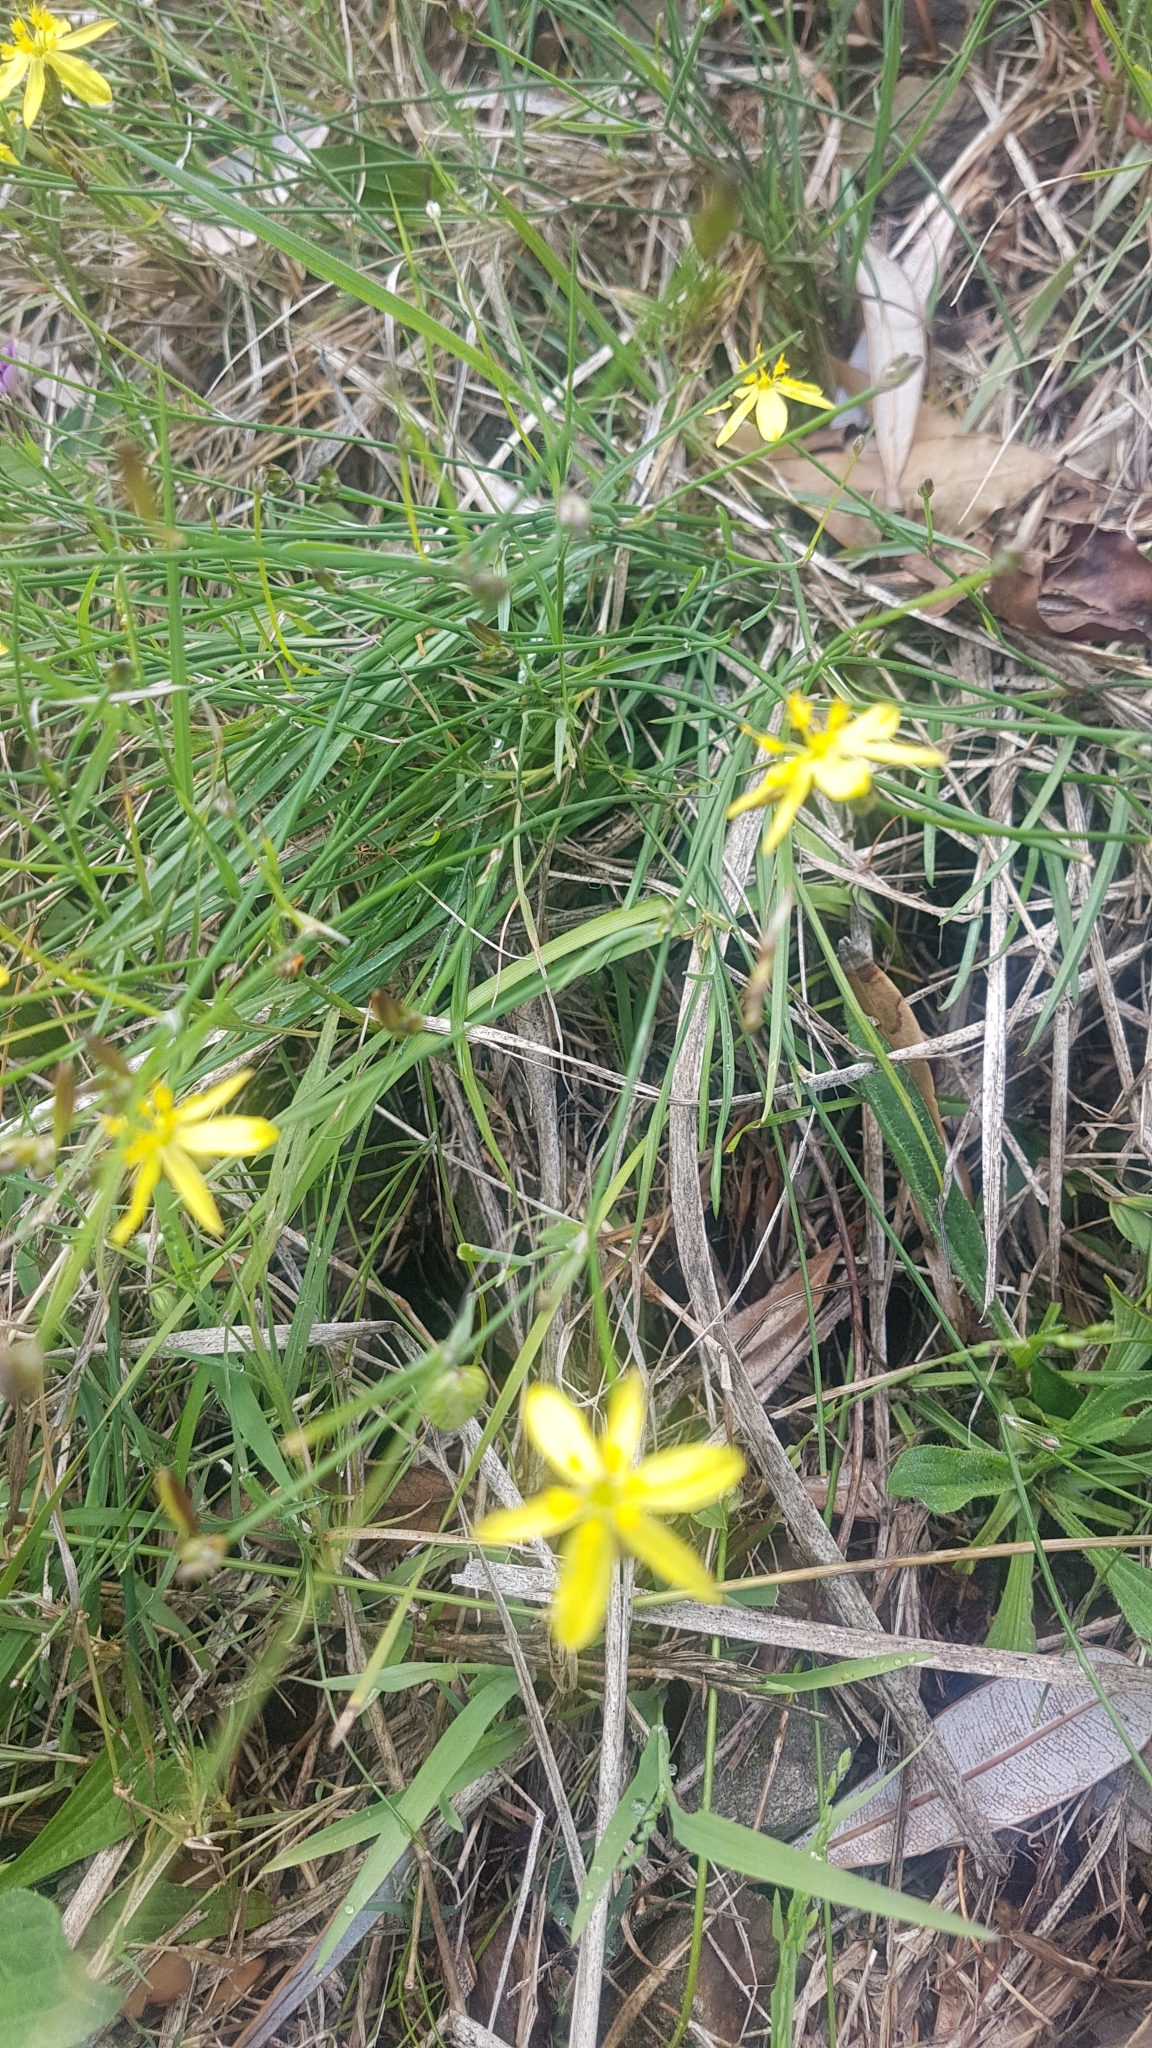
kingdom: Plantae
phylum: Tracheophyta
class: Liliopsida
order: Asparagales
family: Asphodelaceae
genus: Tricoryne
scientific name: Tricoryne elatior
